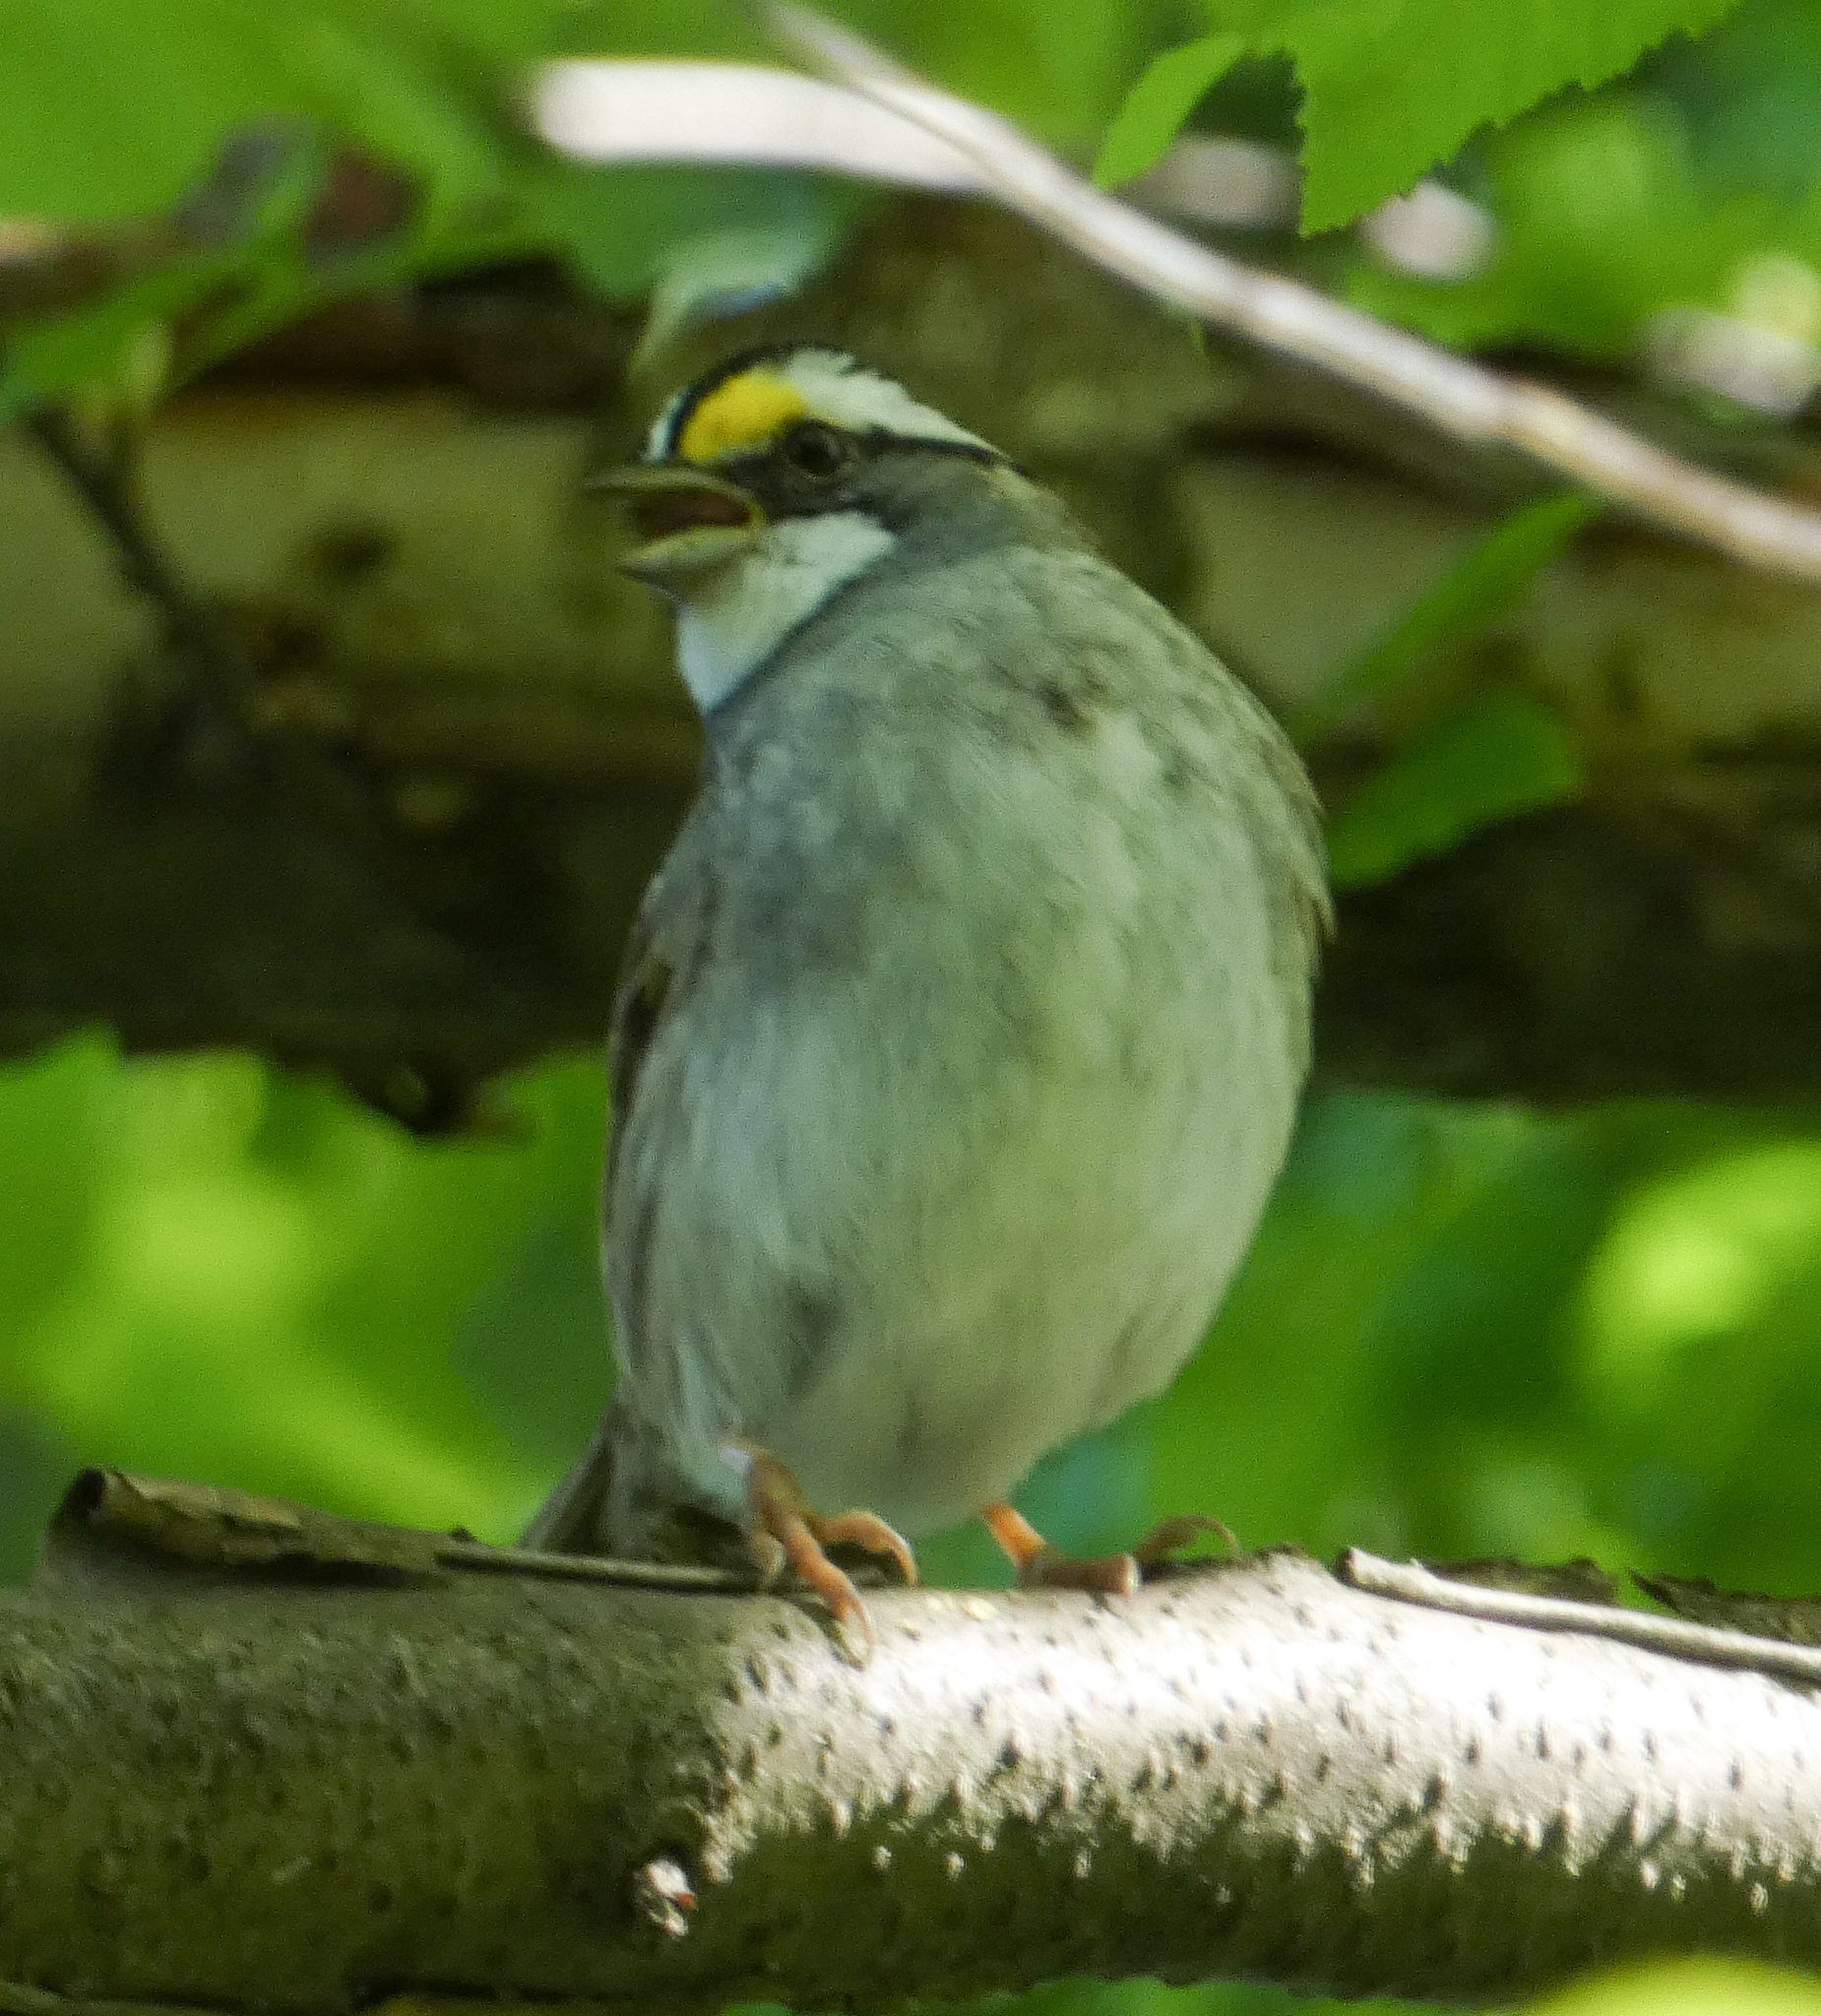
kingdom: Animalia
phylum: Chordata
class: Aves
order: Passeriformes
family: Passerellidae
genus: Zonotrichia
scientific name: Zonotrichia albicollis
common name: White-throated sparrow
